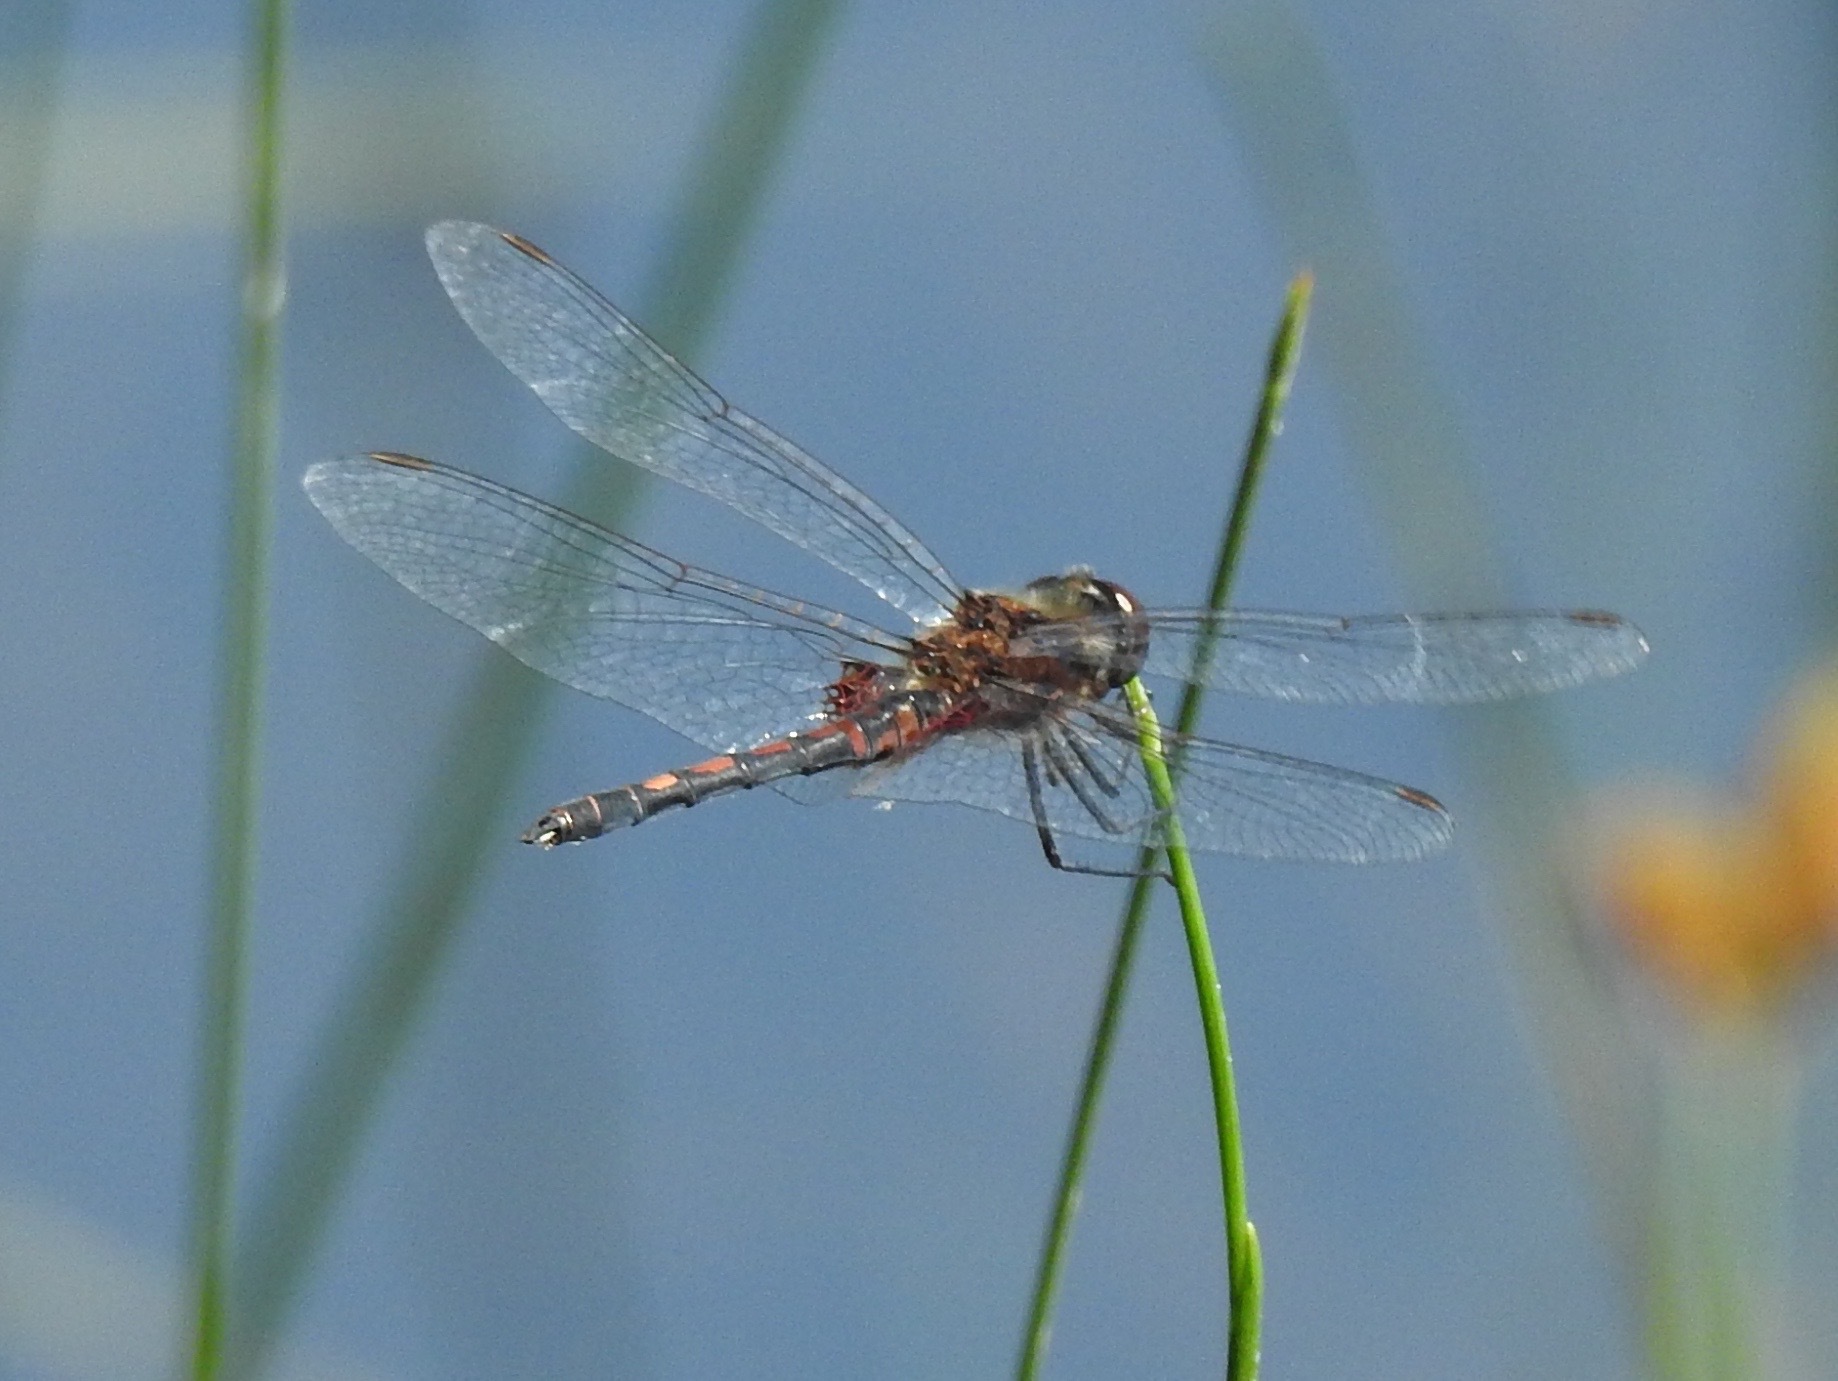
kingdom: Animalia
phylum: Arthropoda
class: Insecta
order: Odonata
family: Libellulidae
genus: Celithemis
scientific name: Celithemis ornata
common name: Ornate pennant
